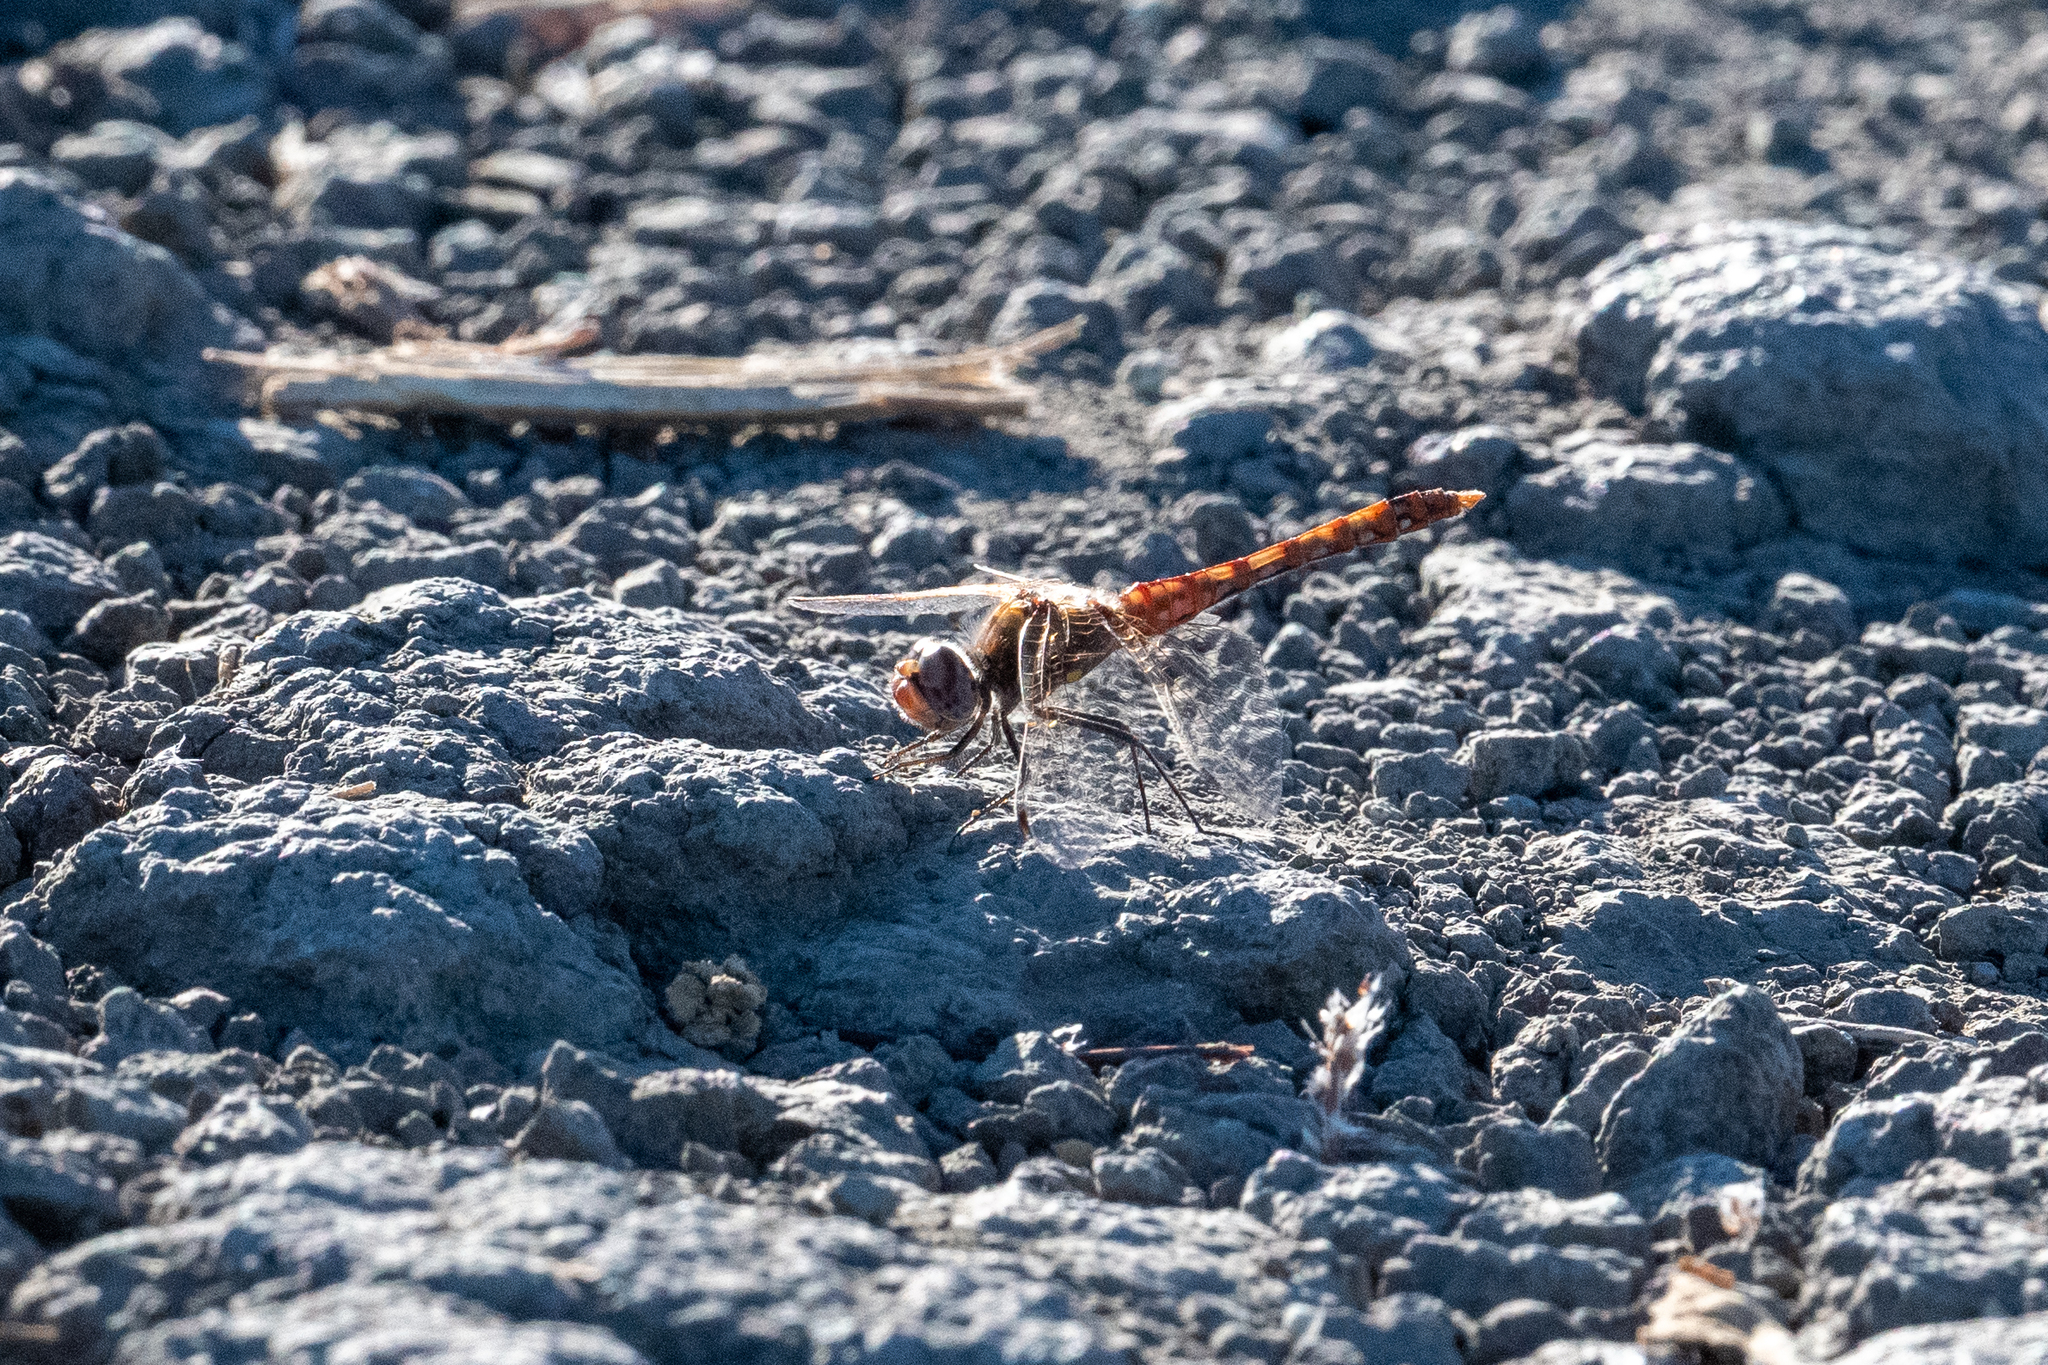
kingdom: Animalia
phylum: Arthropoda
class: Insecta
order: Odonata
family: Libellulidae
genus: Sympetrum
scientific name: Sympetrum corruptum
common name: Variegated meadowhawk
